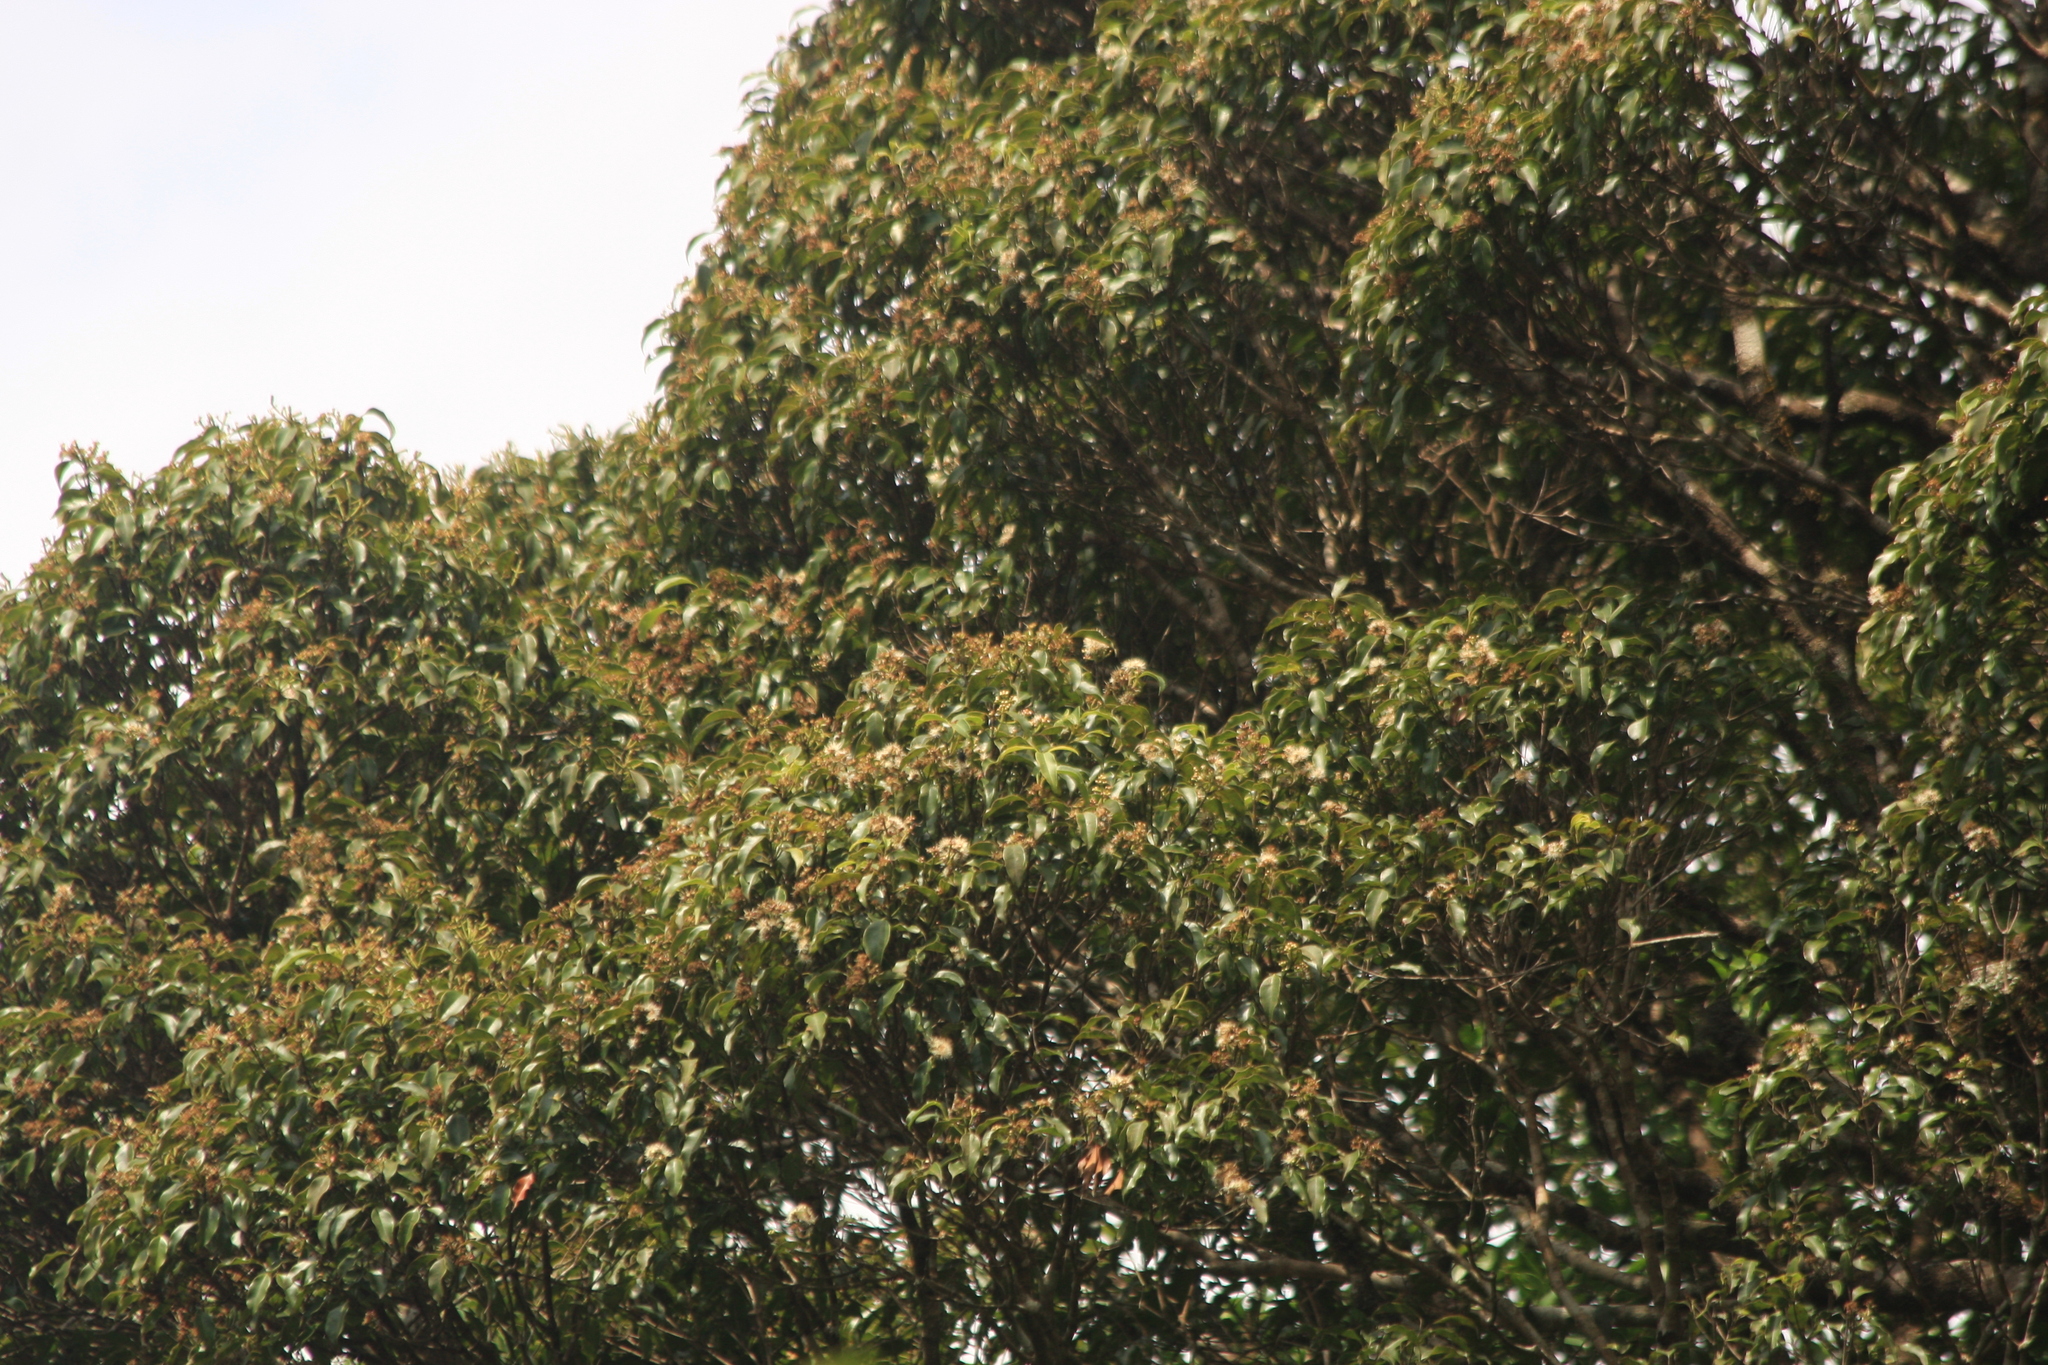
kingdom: Plantae
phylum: Tracheophyta
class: Magnoliopsida
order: Myrtales
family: Myrtaceae
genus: Syzygium
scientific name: Syzygium densiflorum
